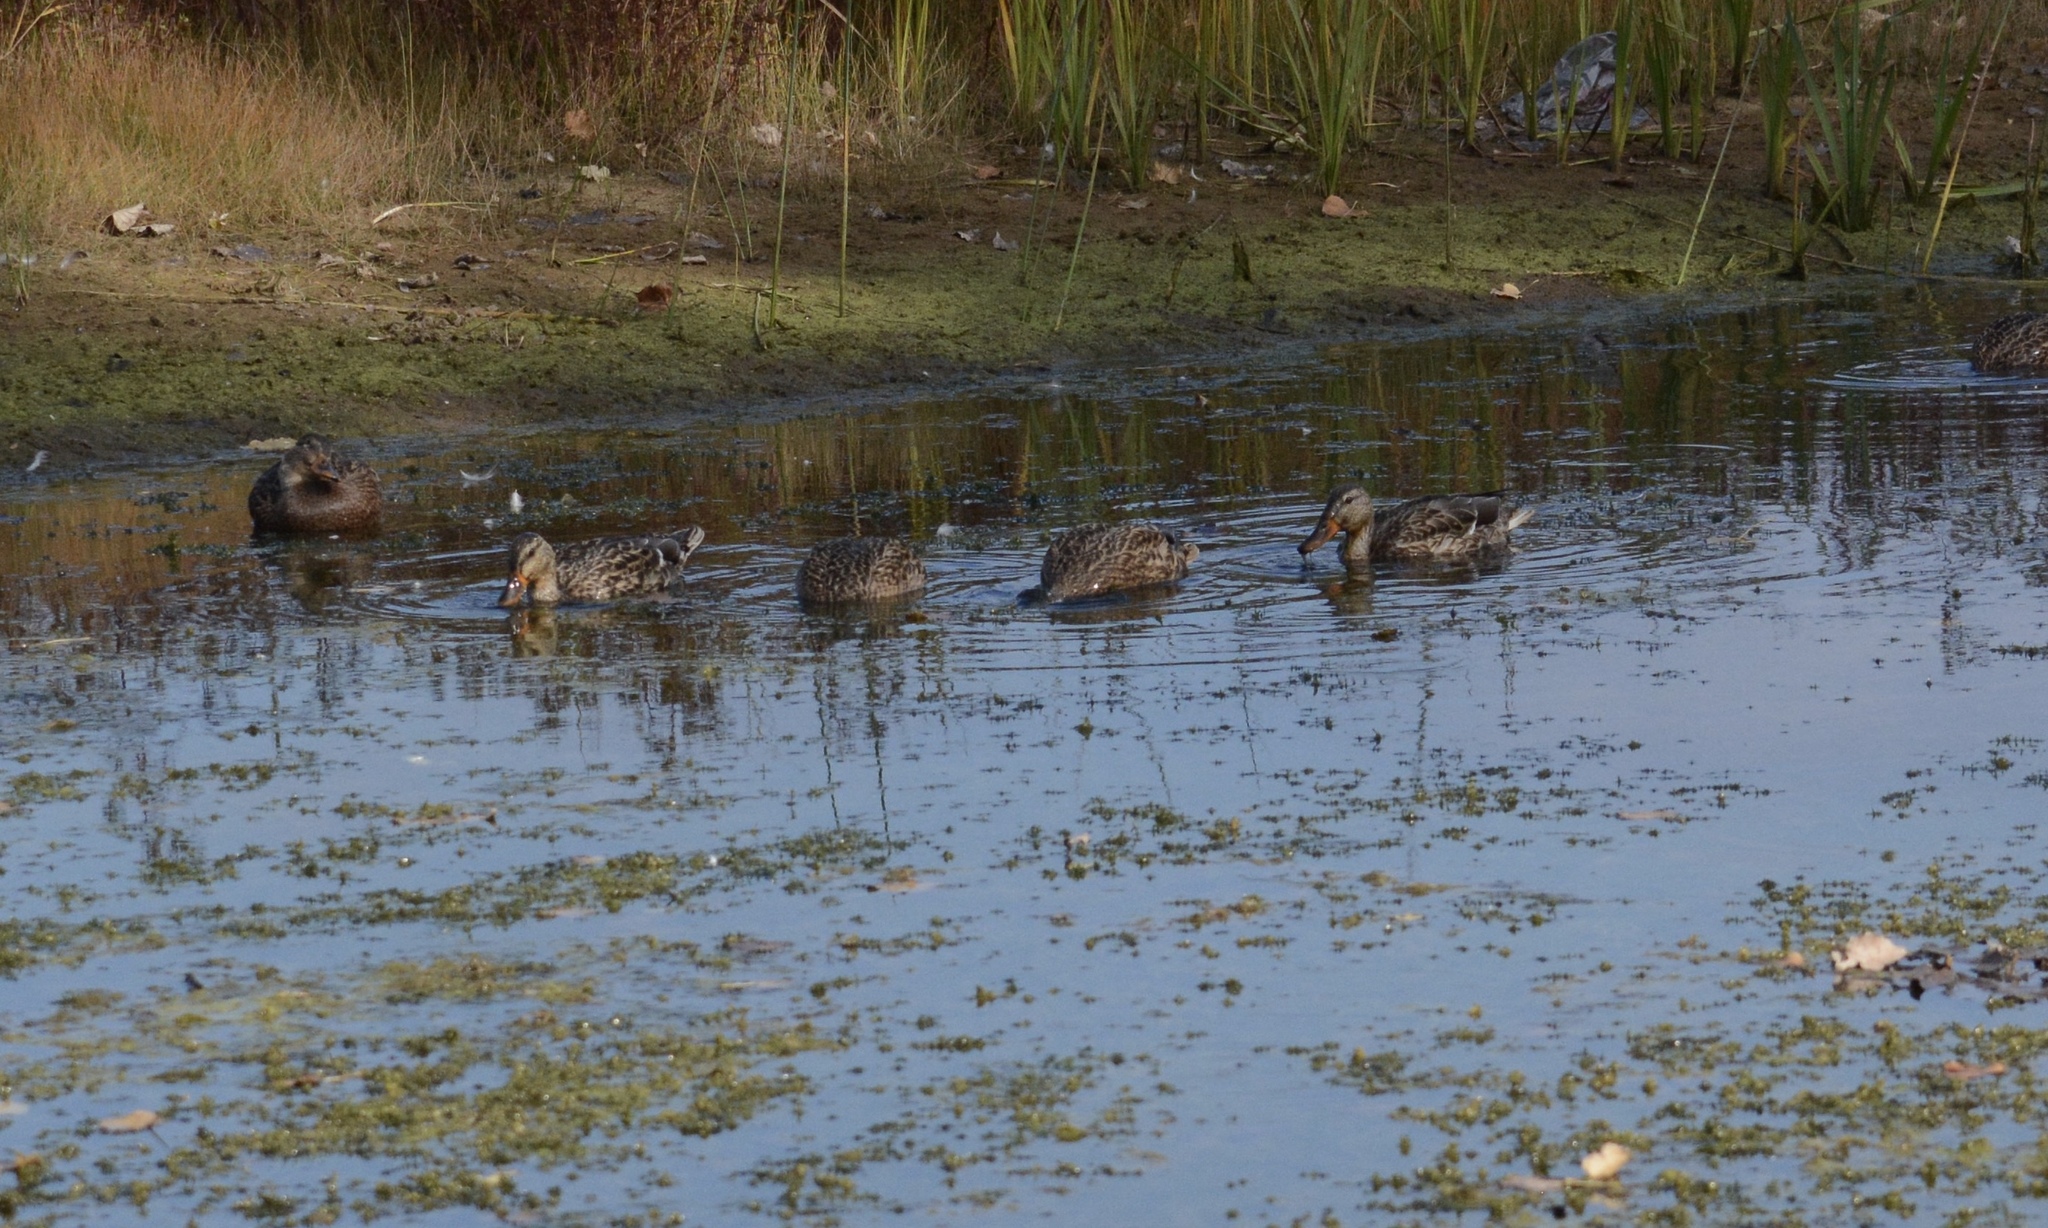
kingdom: Animalia
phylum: Chordata
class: Aves
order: Anseriformes
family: Anatidae
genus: Anas
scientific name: Anas platyrhynchos
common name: Mallard
